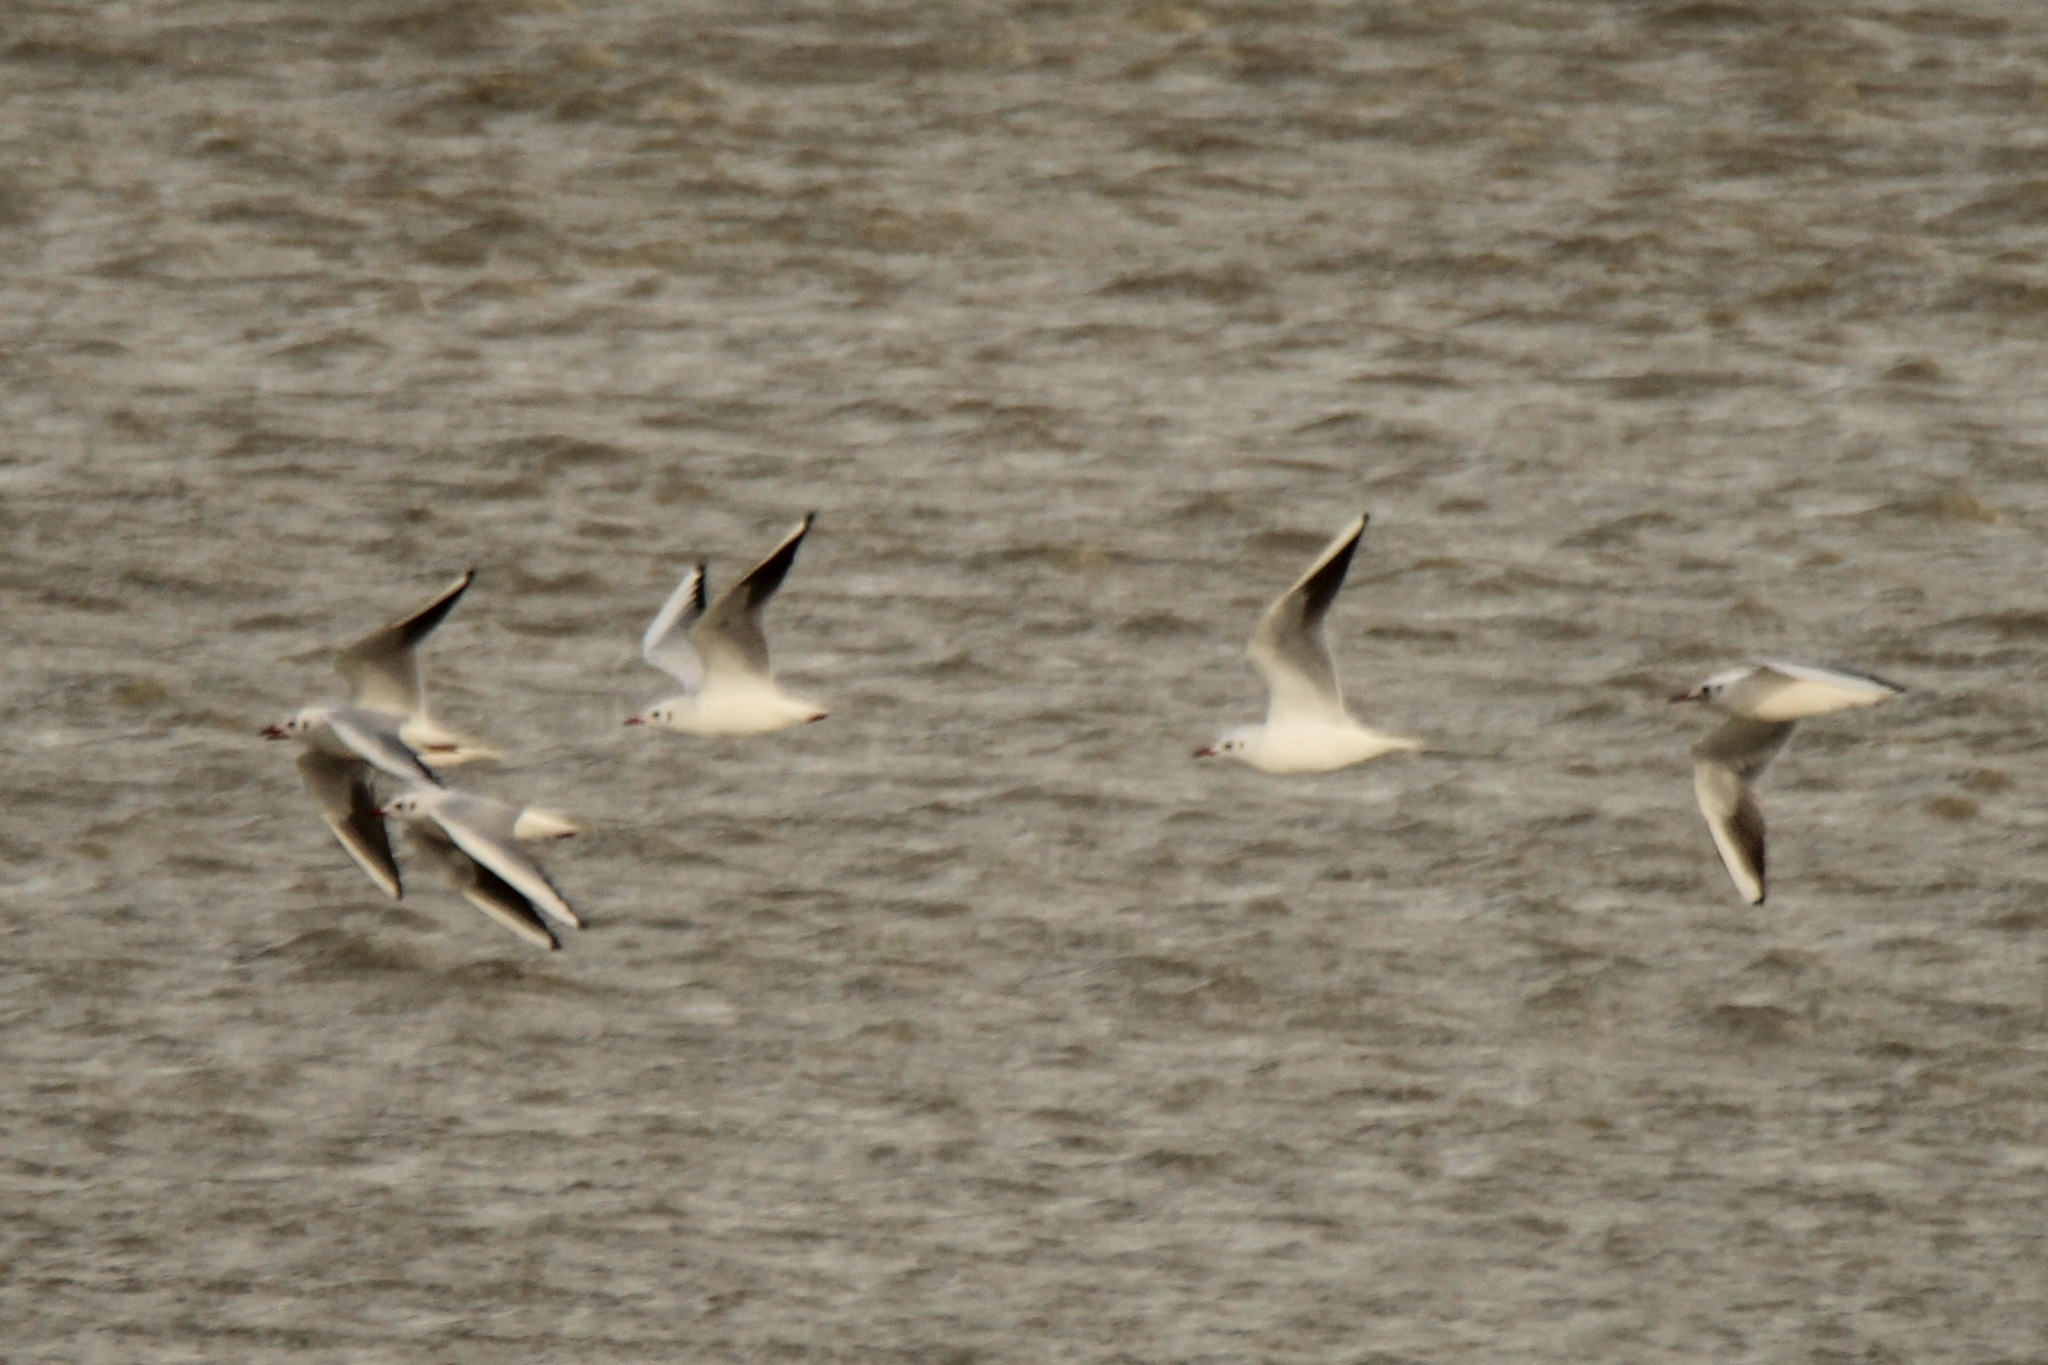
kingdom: Animalia
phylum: Chordata
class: Aves
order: Charadriiformes
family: Laridae
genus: Chroicocephalus
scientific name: Chroicocephalus ridibundus
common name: Black-headed gull
